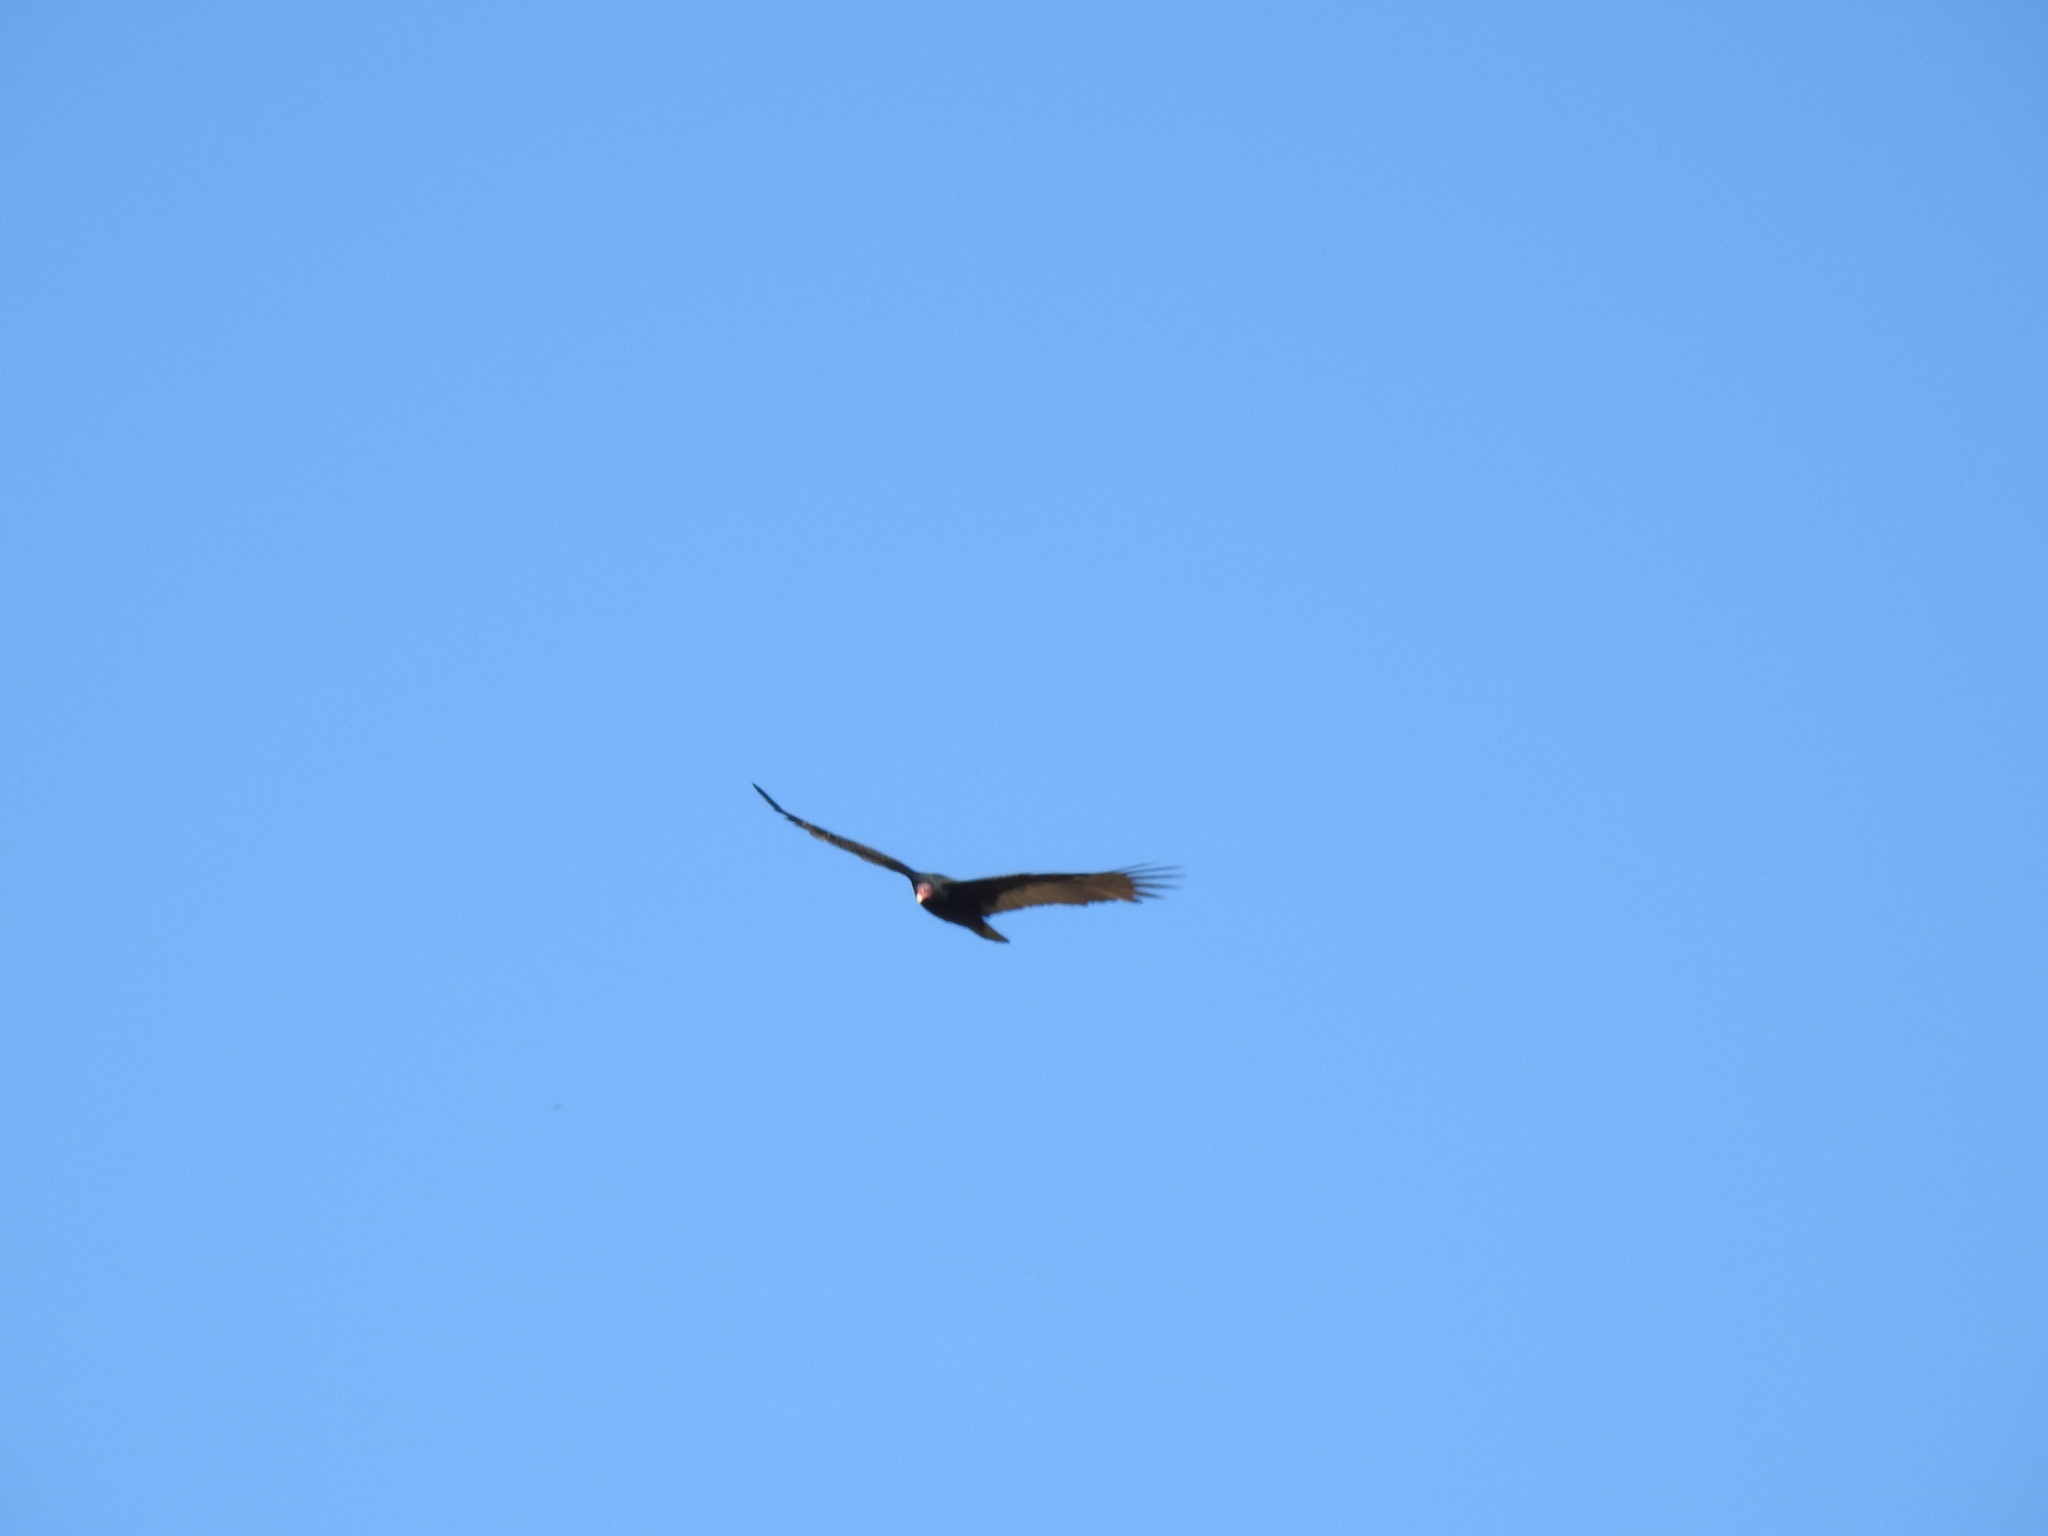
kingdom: Animalia
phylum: Chordata
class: Aves
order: Accipitriformes
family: Cathartidae
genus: Cathartes
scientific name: Cathartes aura
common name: Turkey vulture
